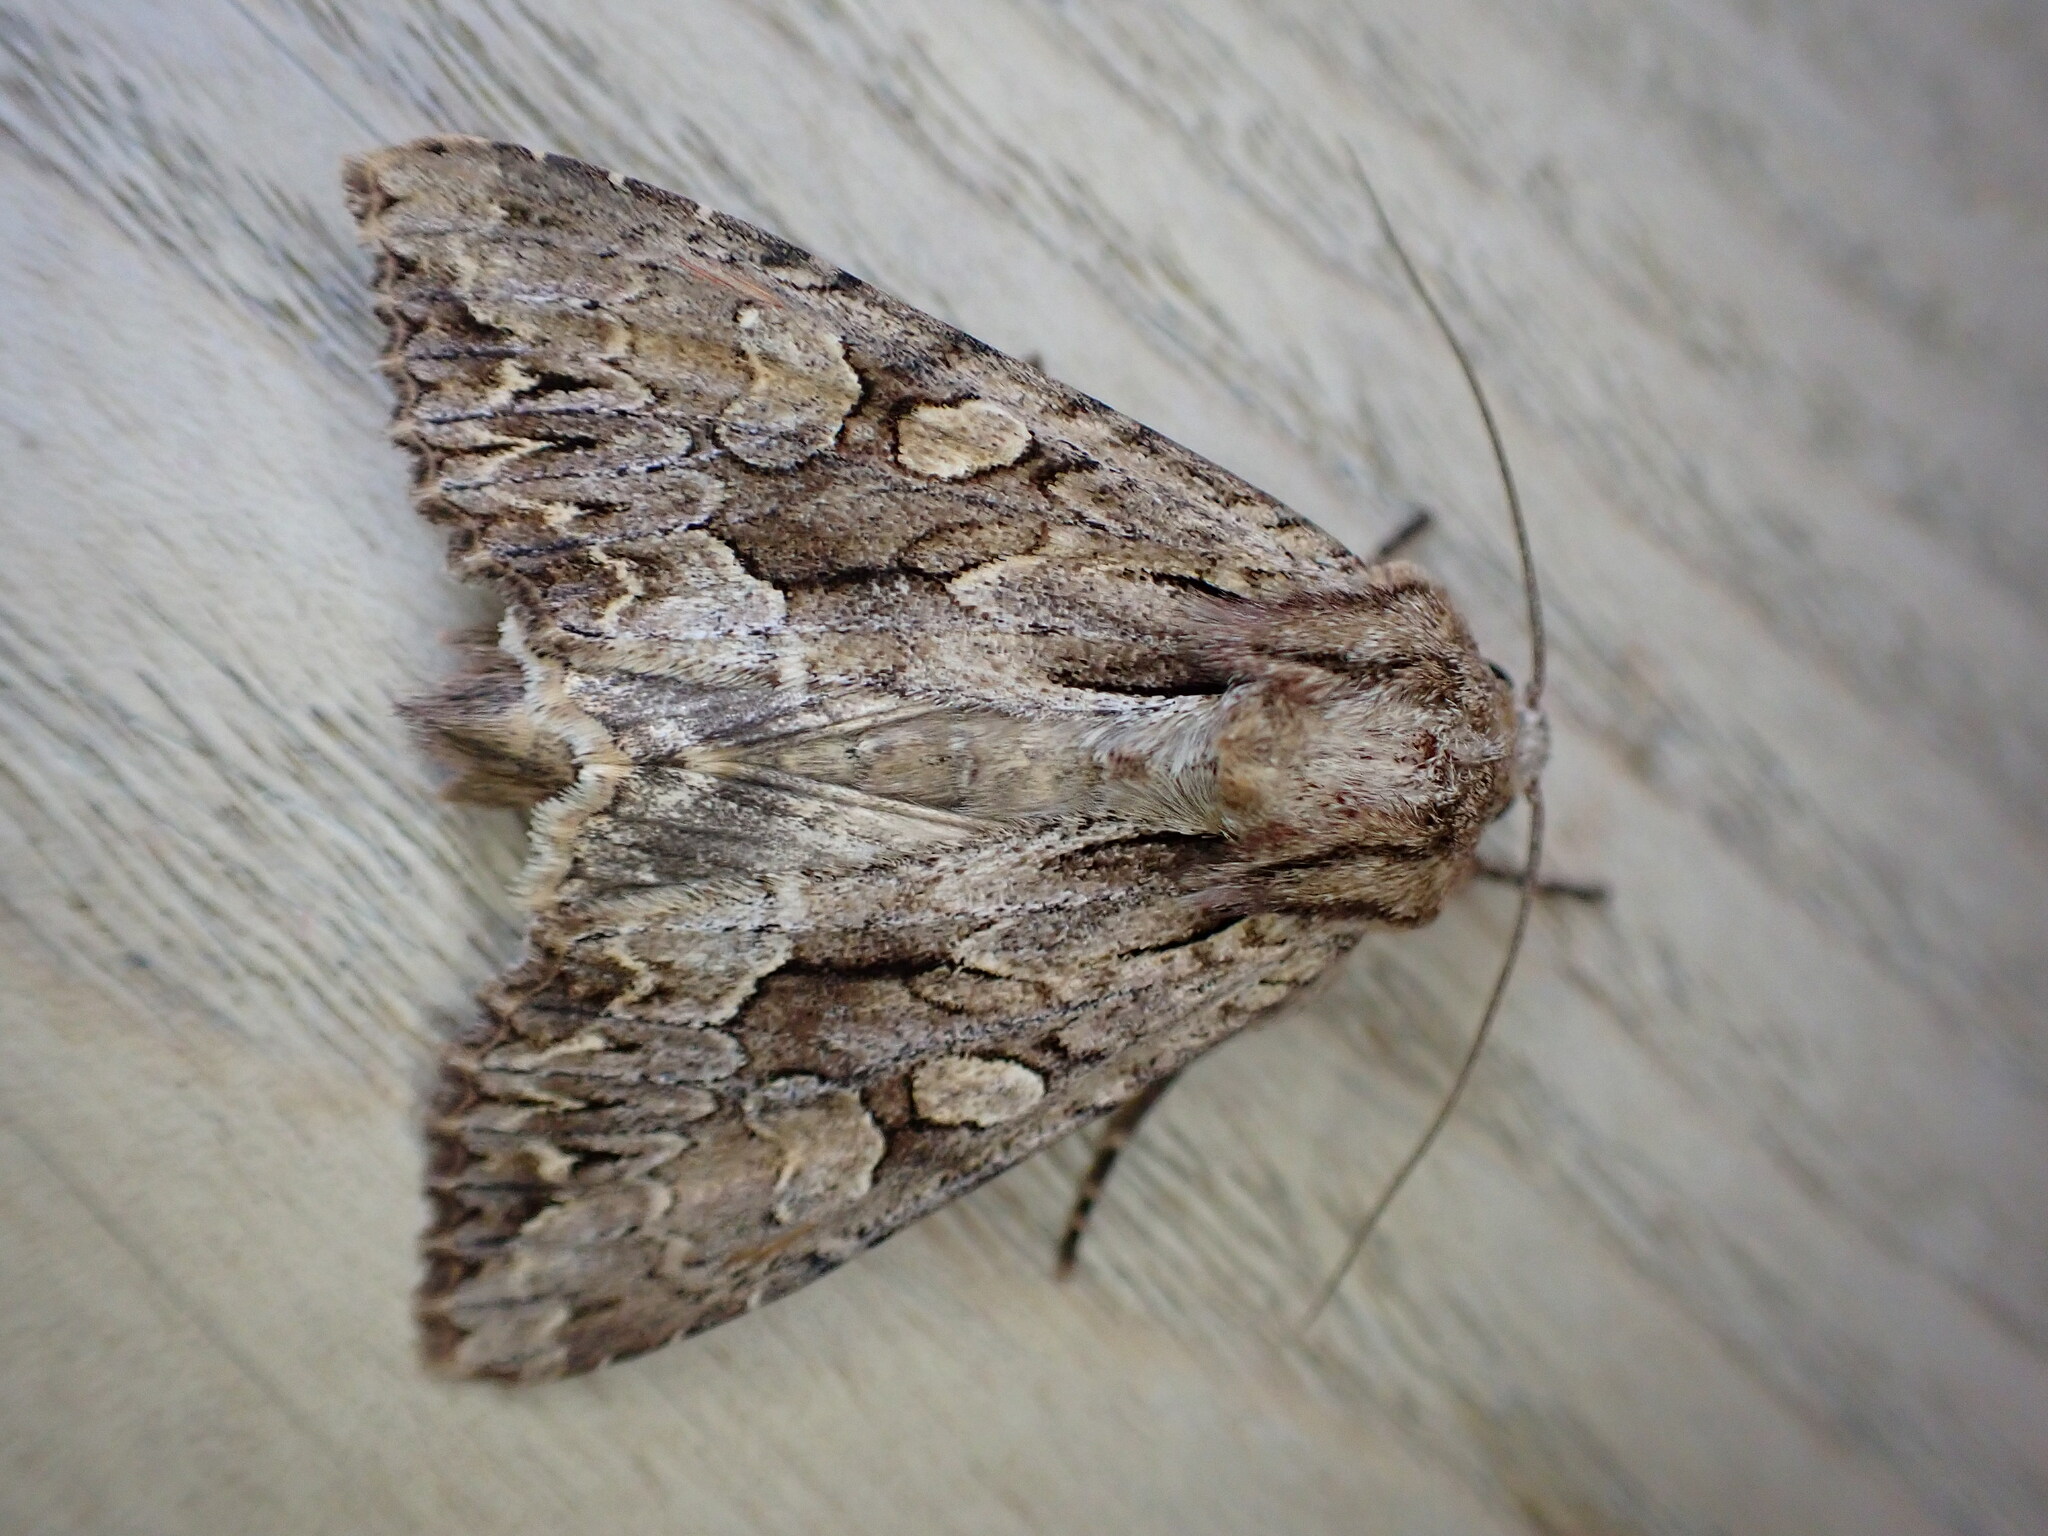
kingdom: Animalia
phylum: Arthropoda
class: Insecta
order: Lepidoptera
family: Noctuidae
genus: Apamea
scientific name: Apamea monoglypha
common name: Dark arches
